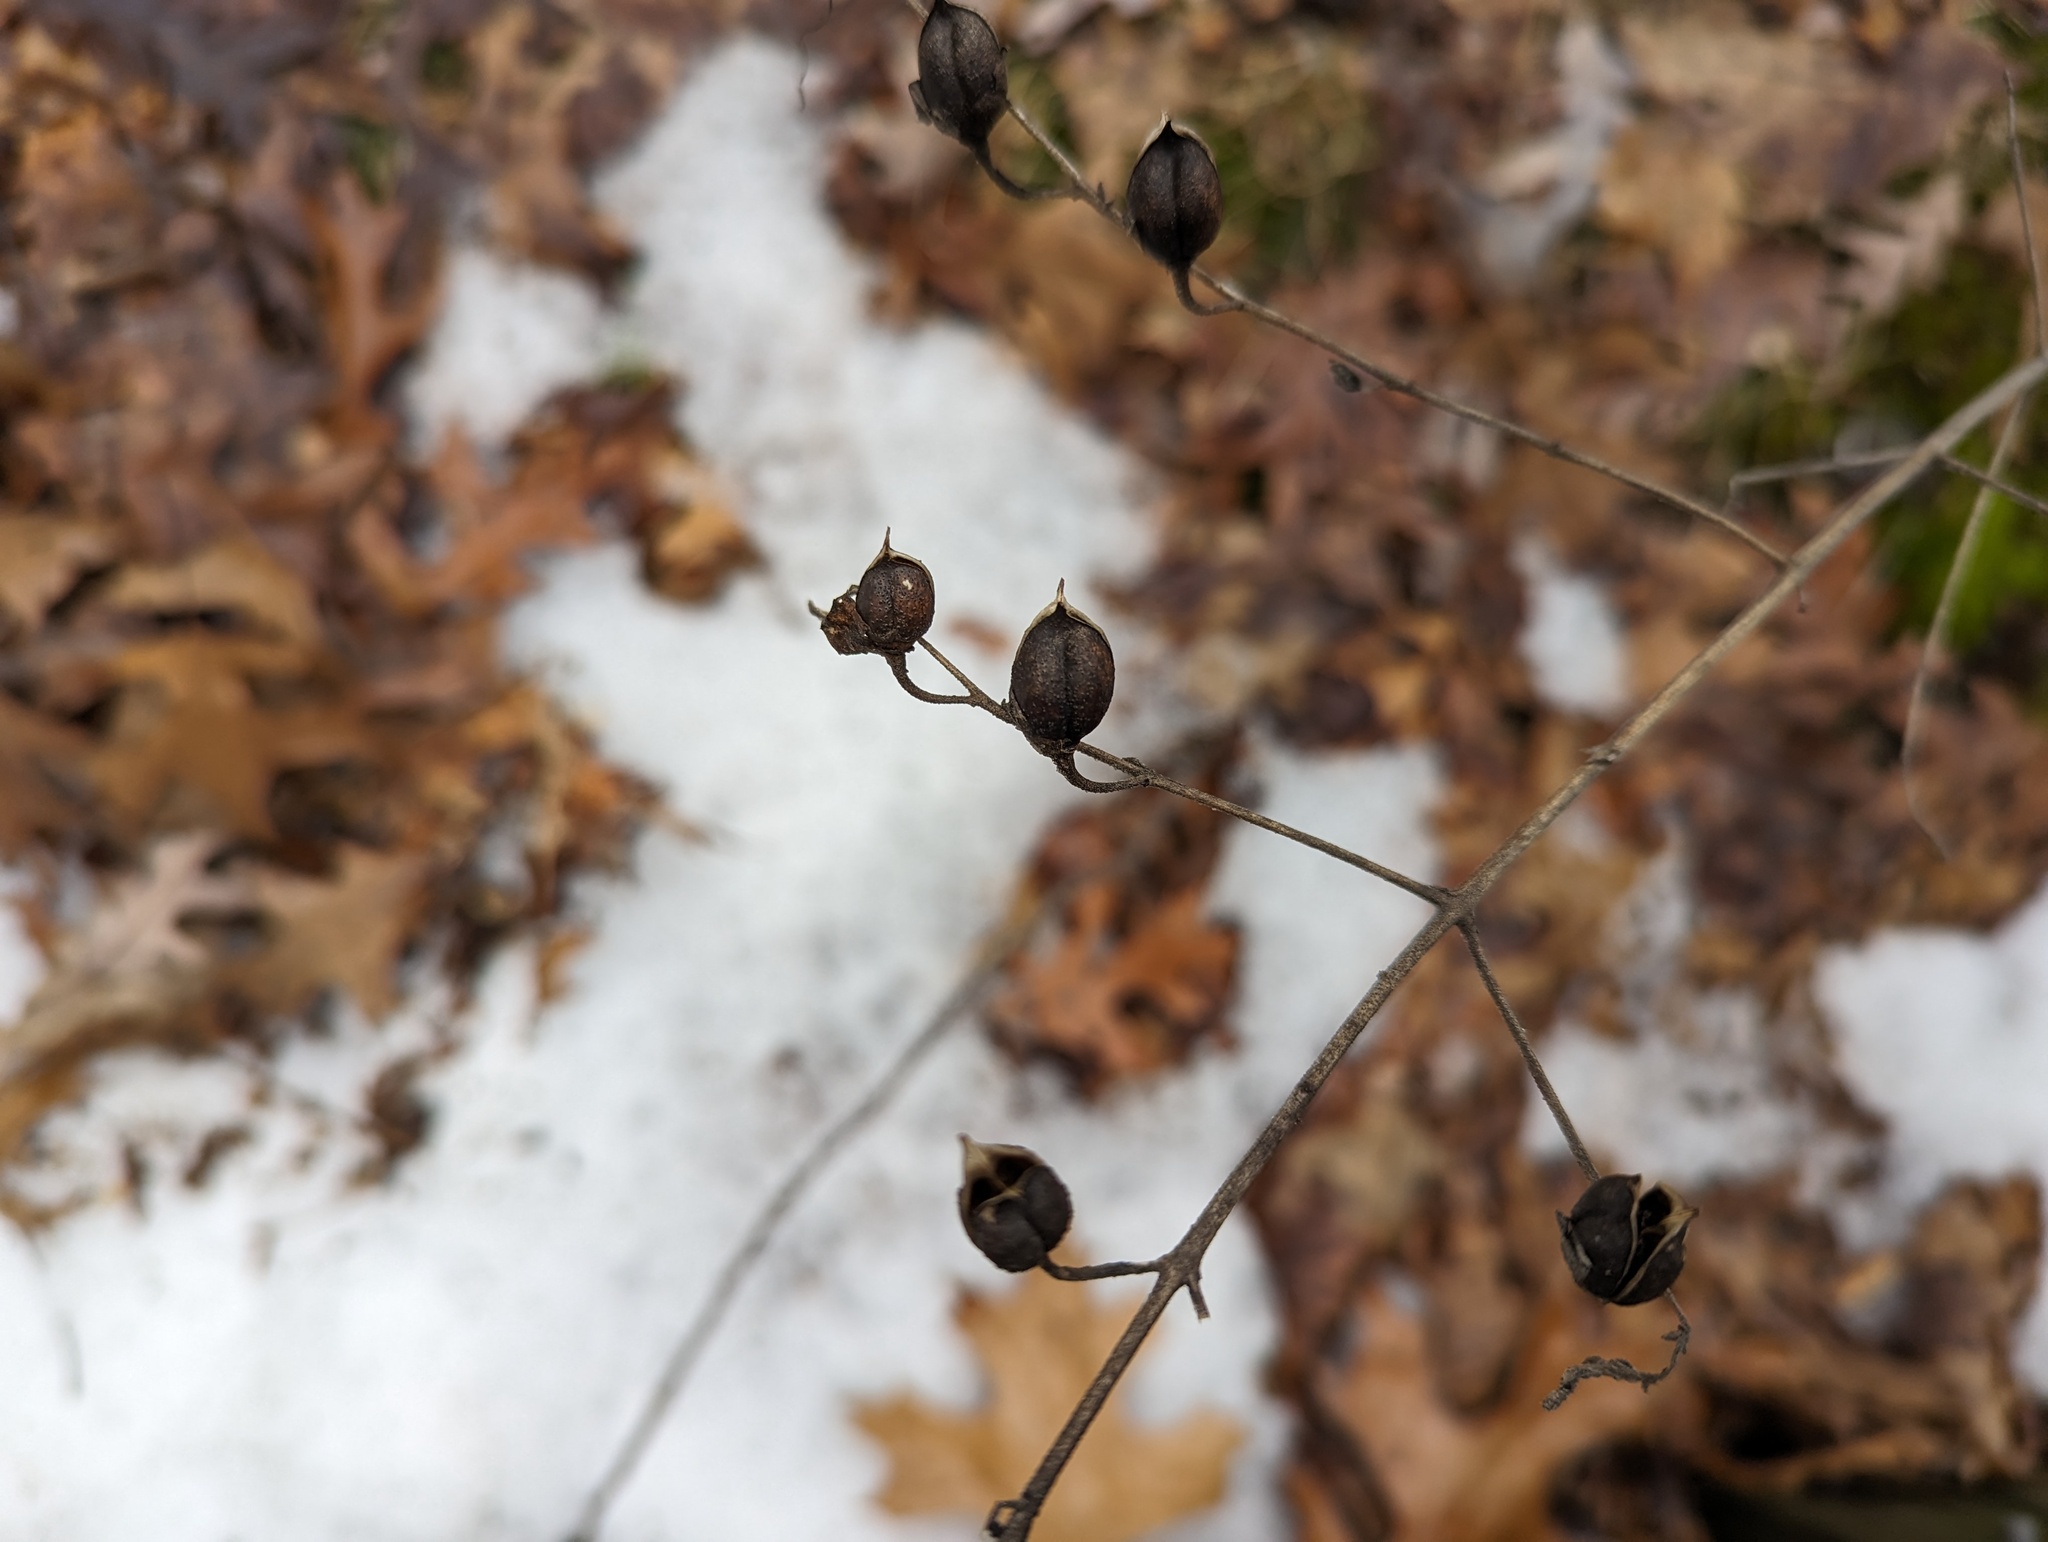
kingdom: Plantae
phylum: Tracheophyta
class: Magnoliopsida
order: Lamiales
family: Orobanchaceae
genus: Aureolaria
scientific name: Aureolaria grandiflora
